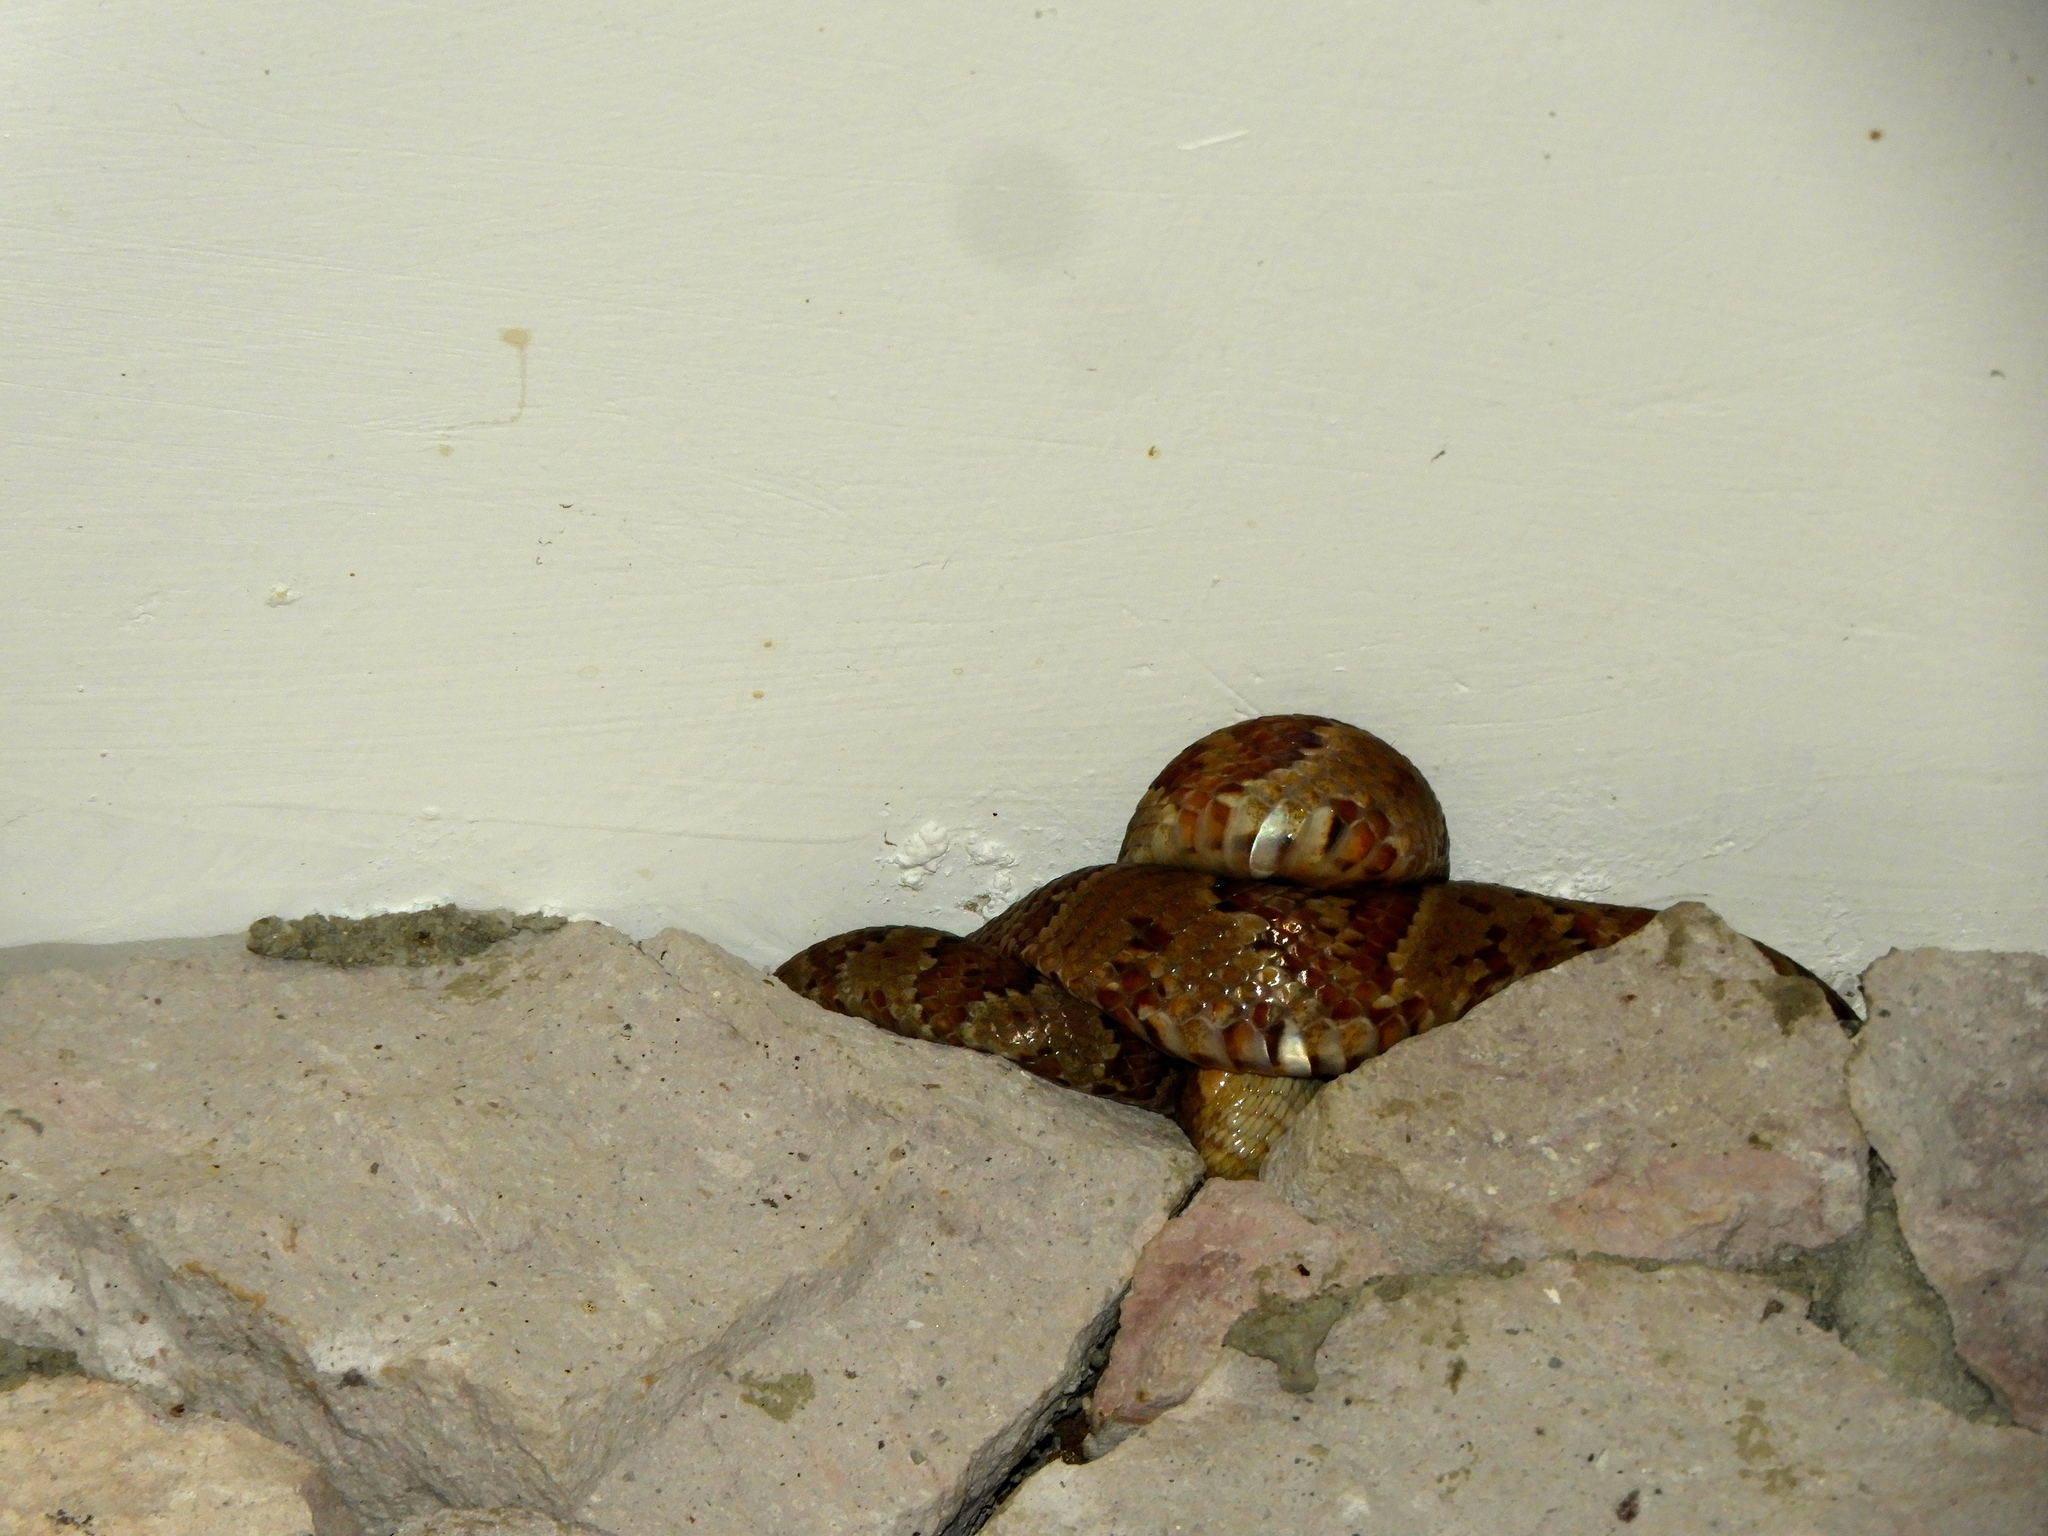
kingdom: Animalia
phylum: Chordata
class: Squamata
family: Colubridae
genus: Trimorphodon
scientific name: Trimorphodon paucimaculatus
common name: Sinaloan lyresnake
